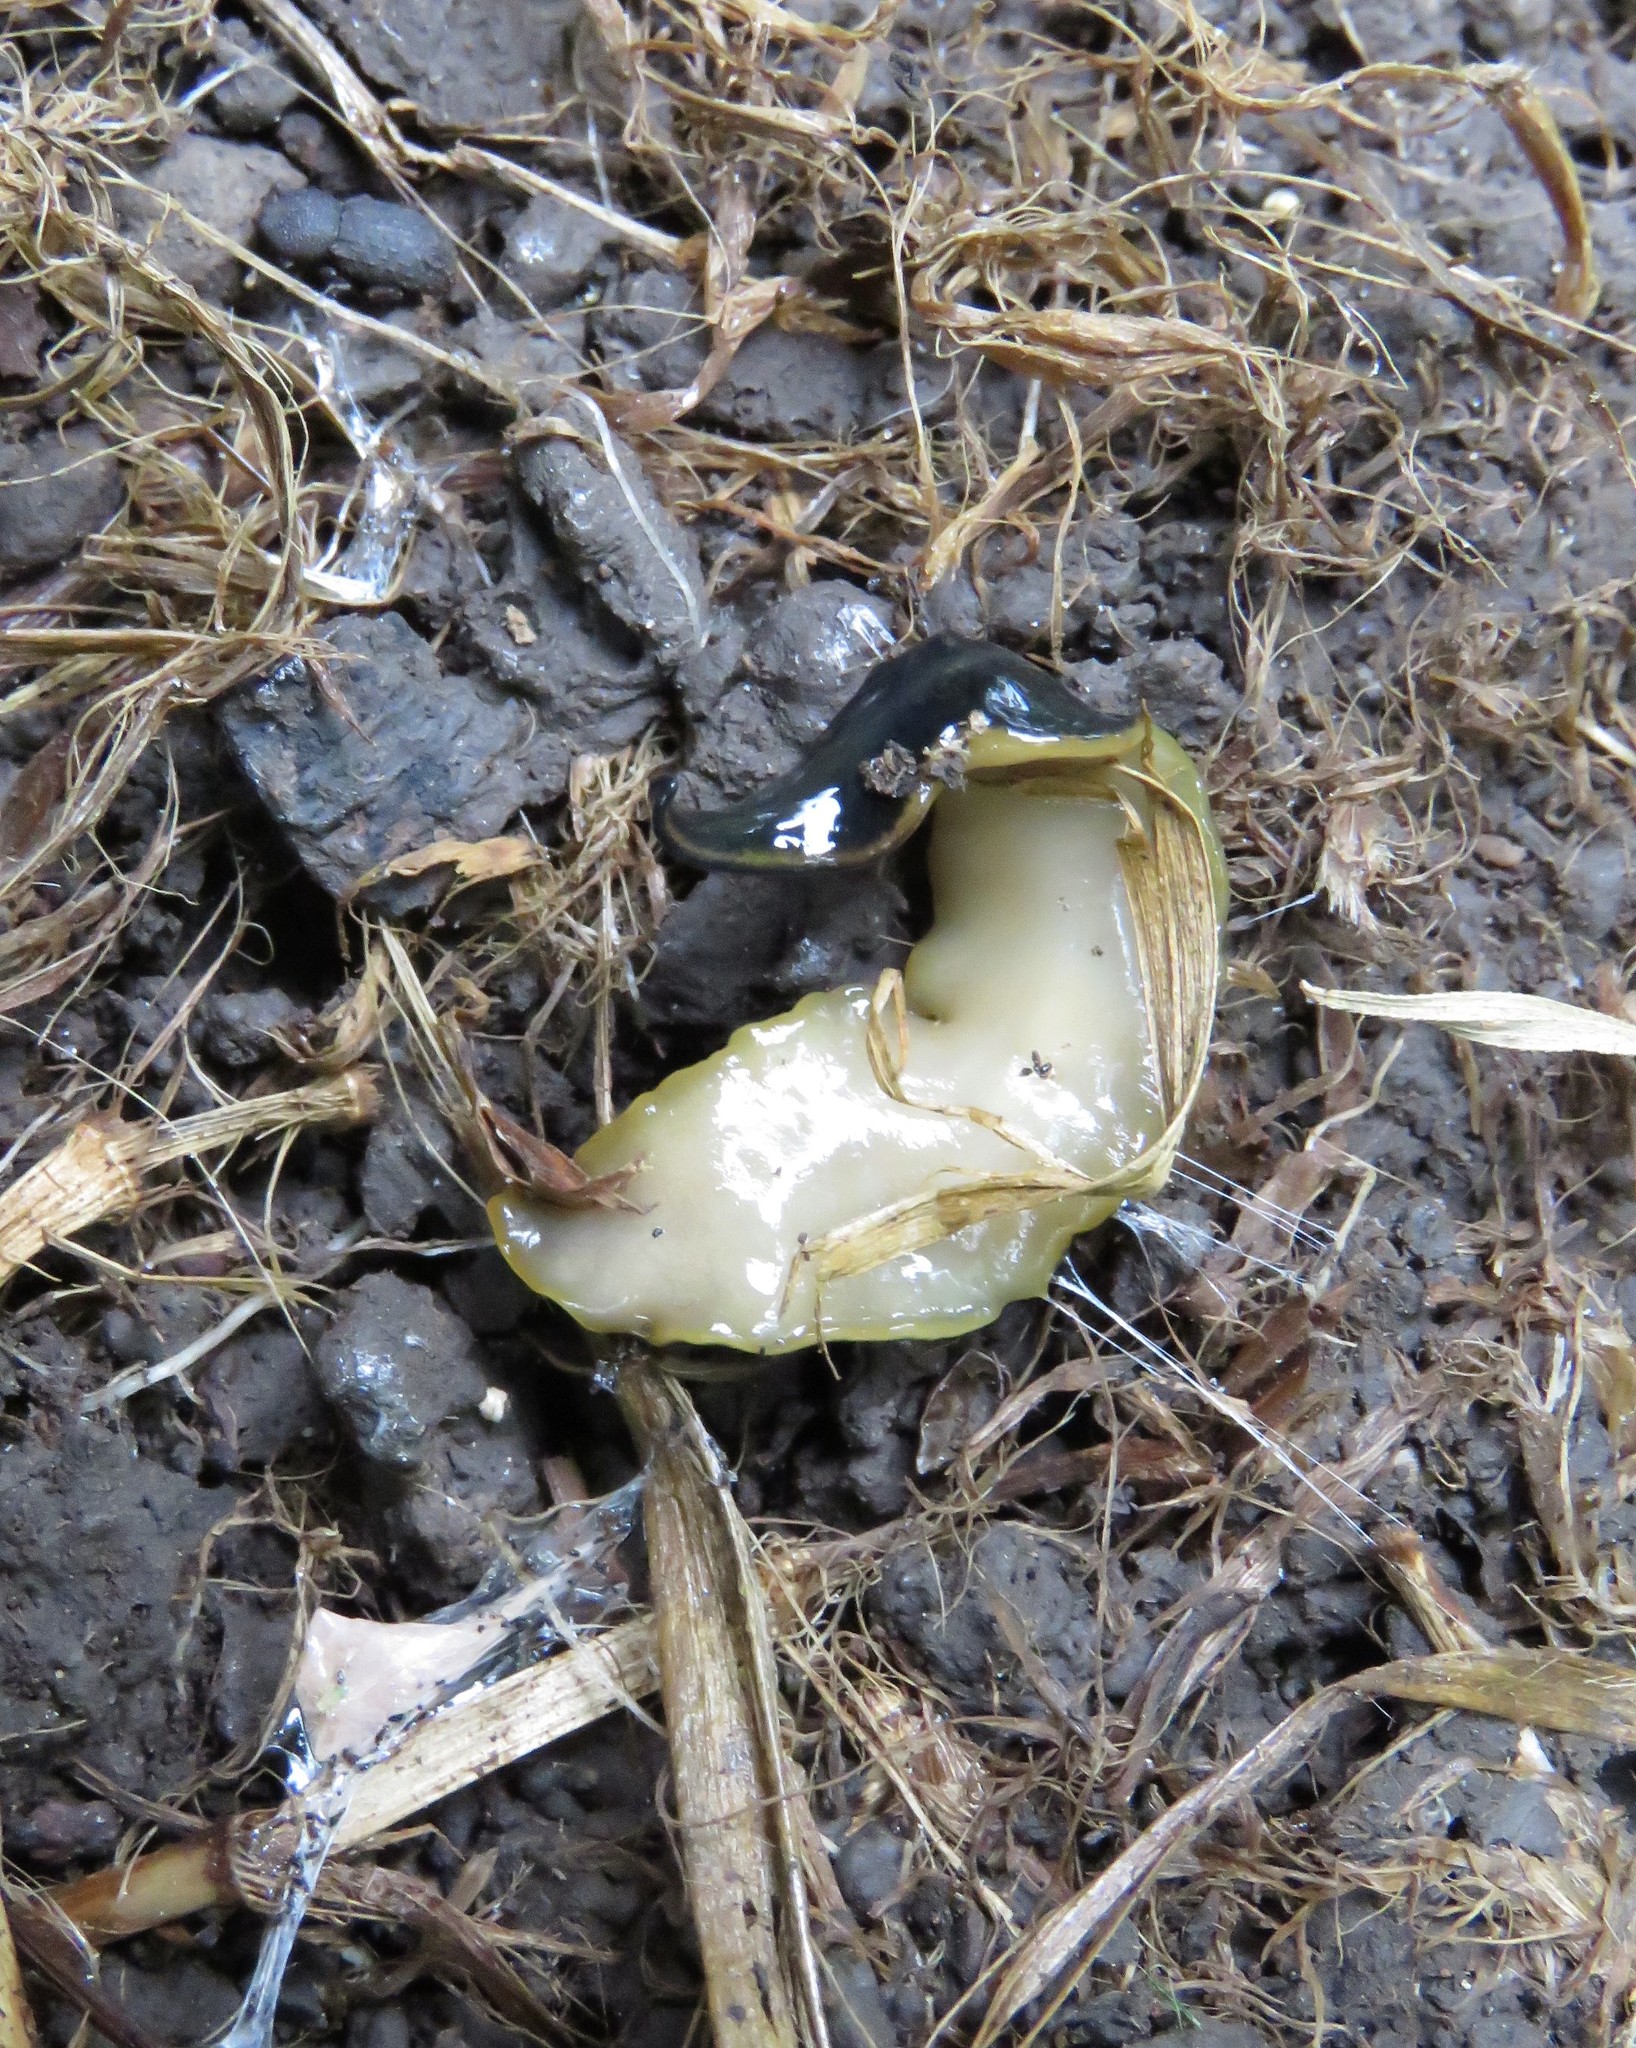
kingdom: Animalia
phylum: Platyhelminthes
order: Tricladida
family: Geoplanidae
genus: Amaga
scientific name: Amaga becki
